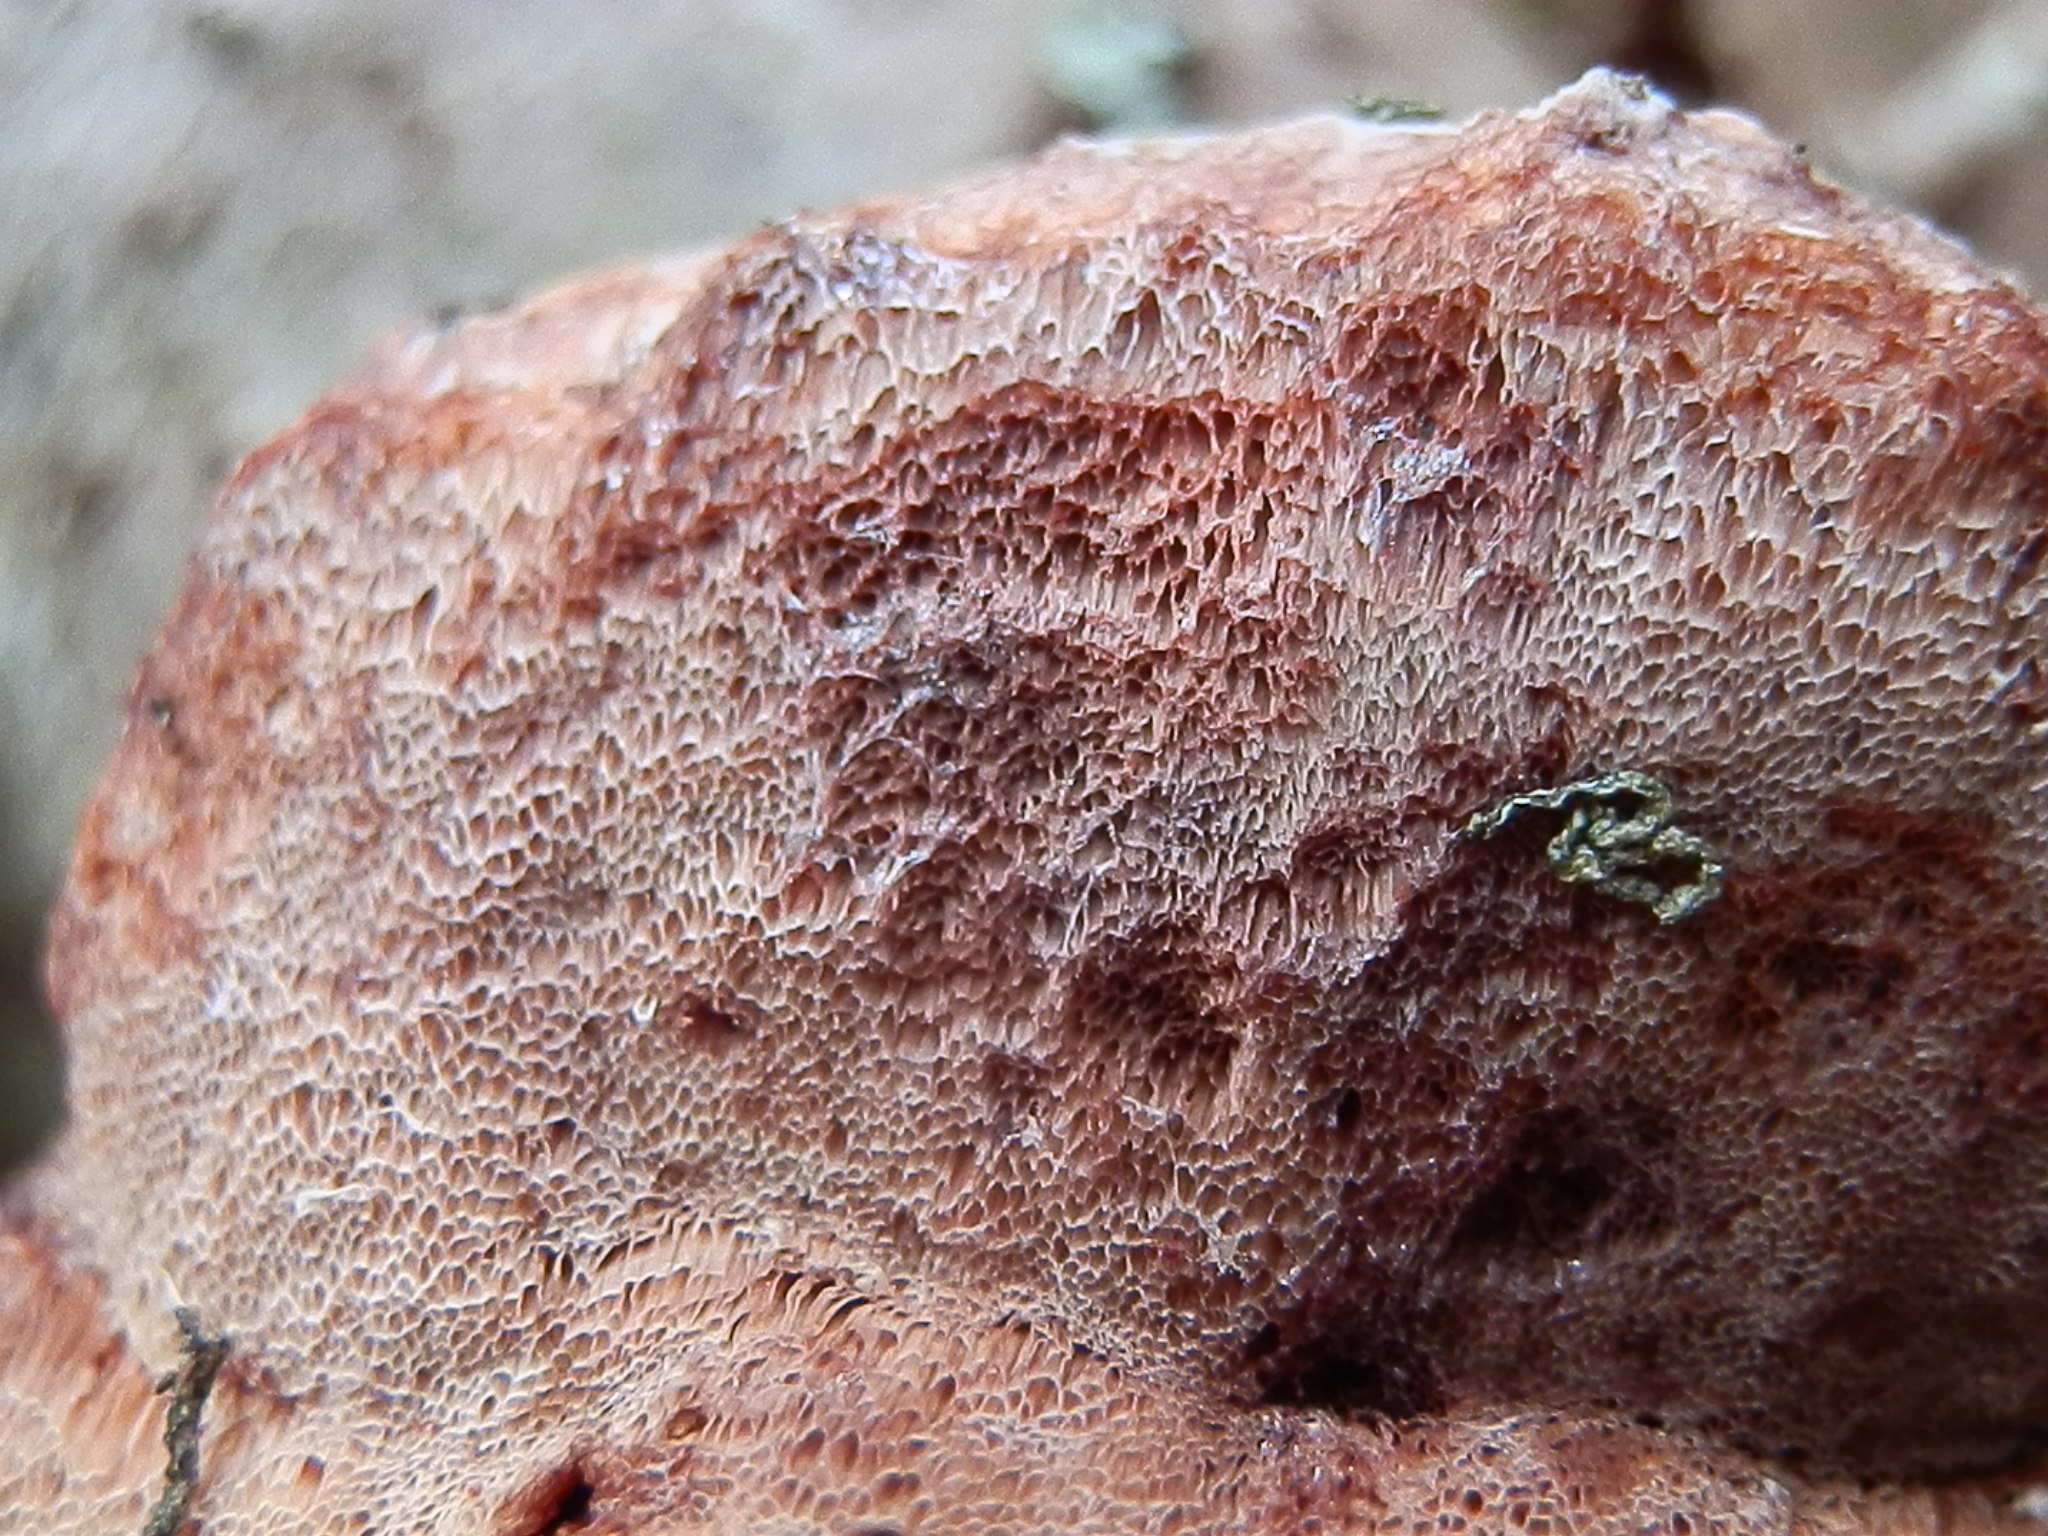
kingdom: Fungi
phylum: Basidiomycota
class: Agaricomycetes
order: Polyporales
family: Fomitopsidaceae
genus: Rhodofomes
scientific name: Rhodofomes roseus
